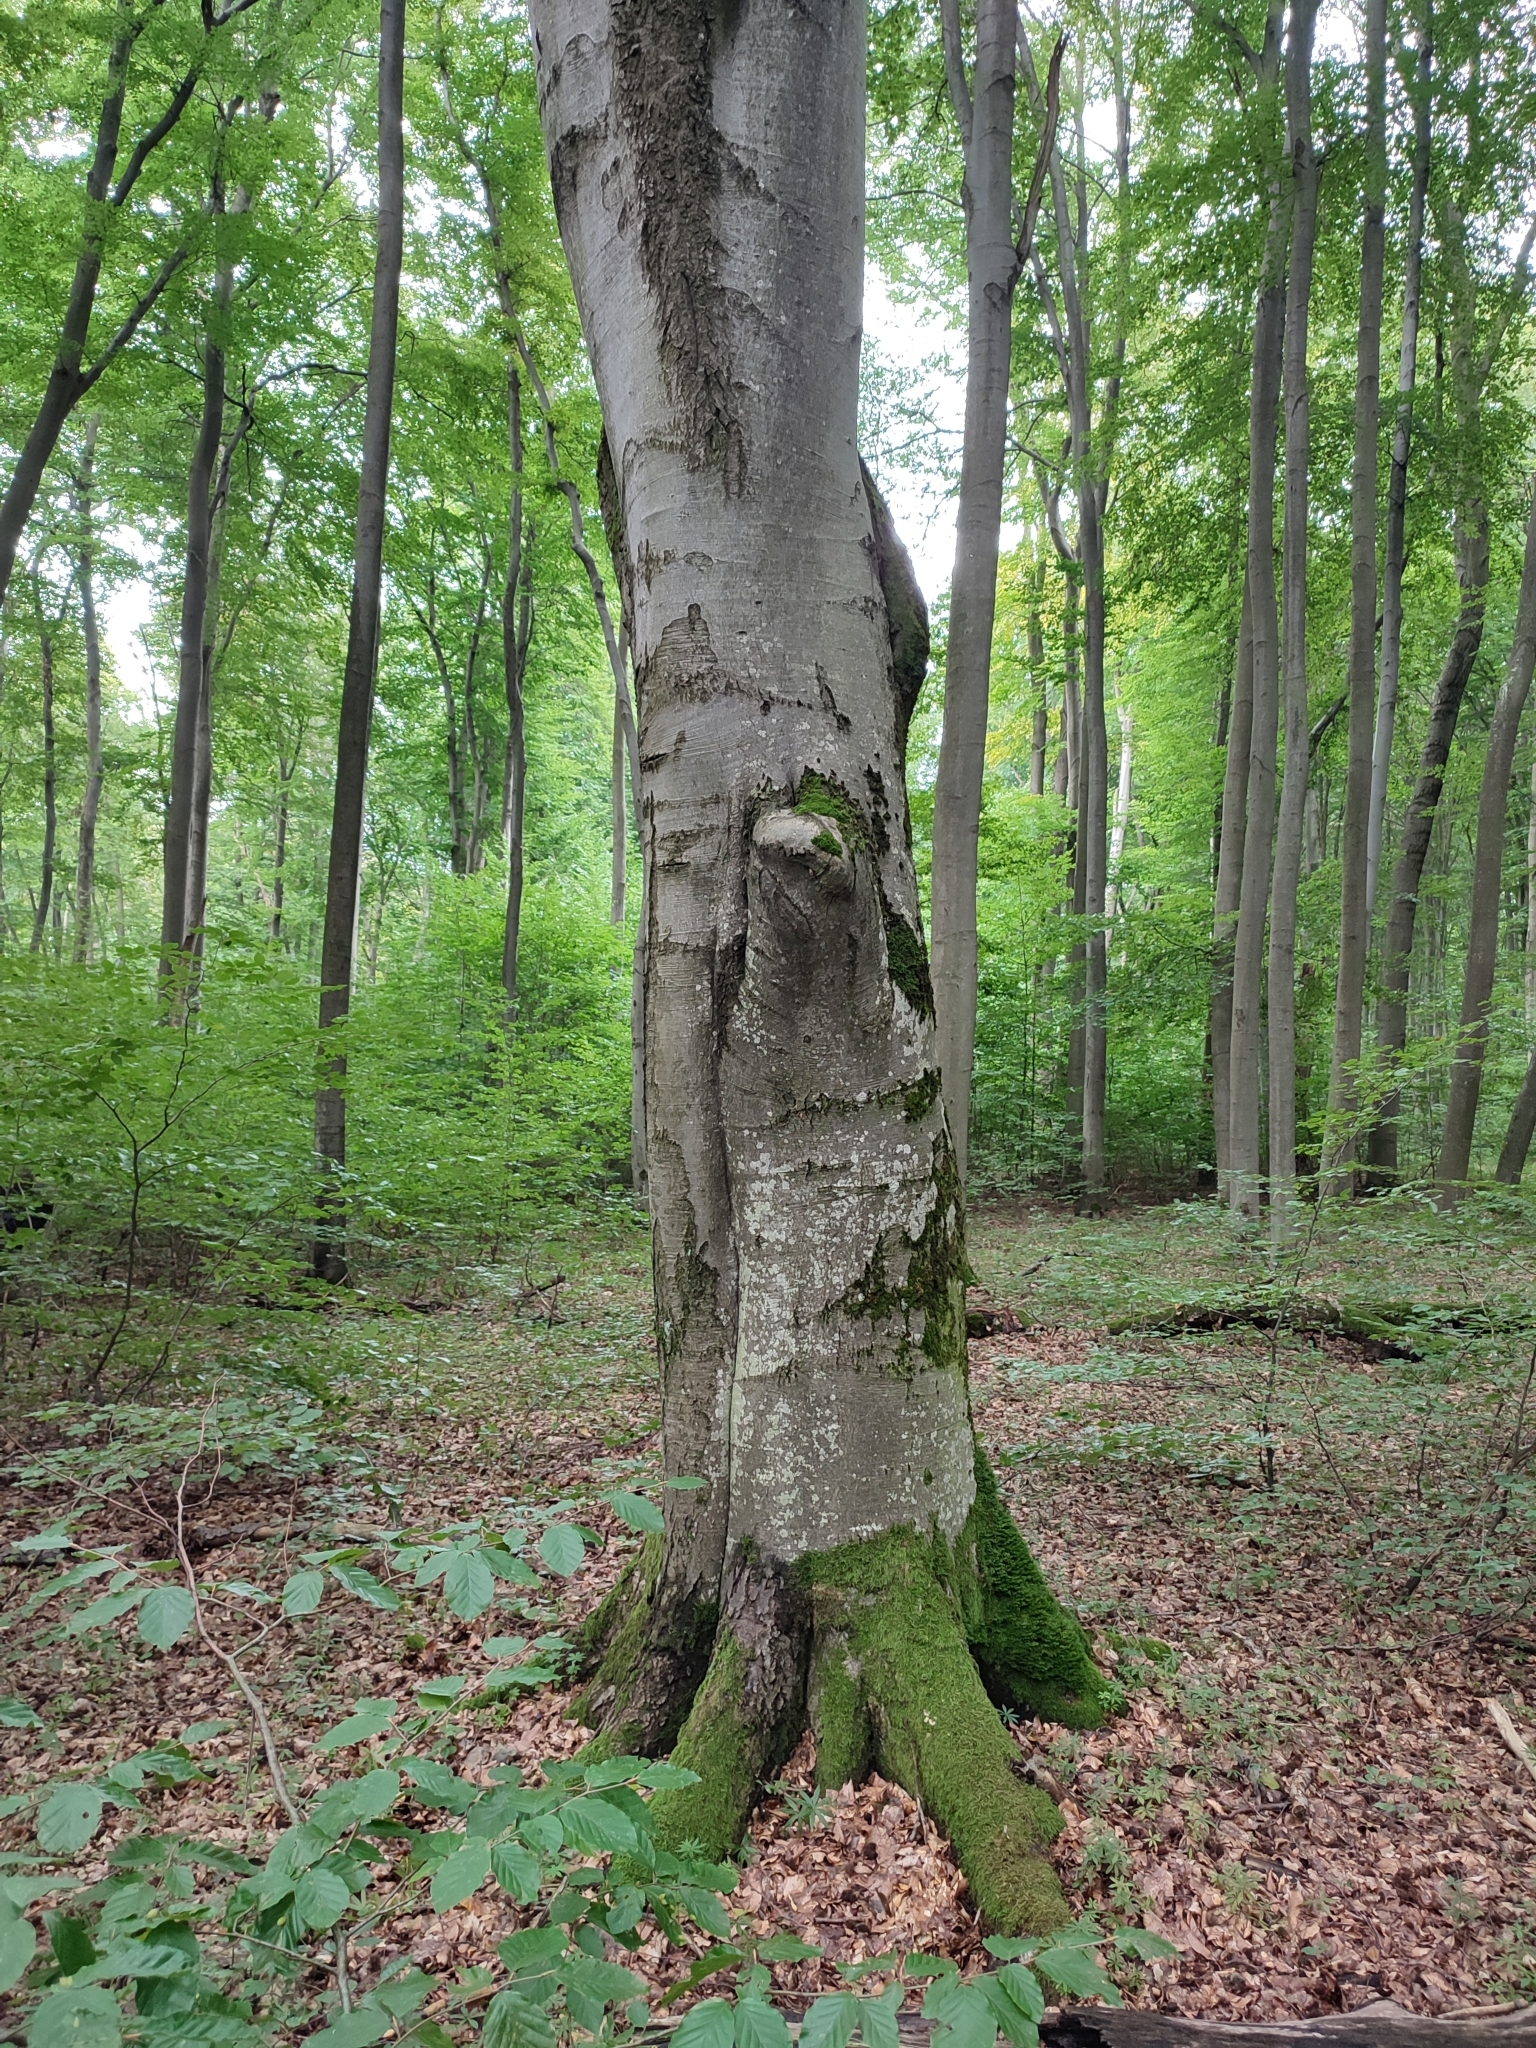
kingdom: Plantae
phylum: Tracheophyta
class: Magnoliopsida
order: Fagales
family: Fagaceae
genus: Fagus
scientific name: Fagus sylvatica
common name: Beech
